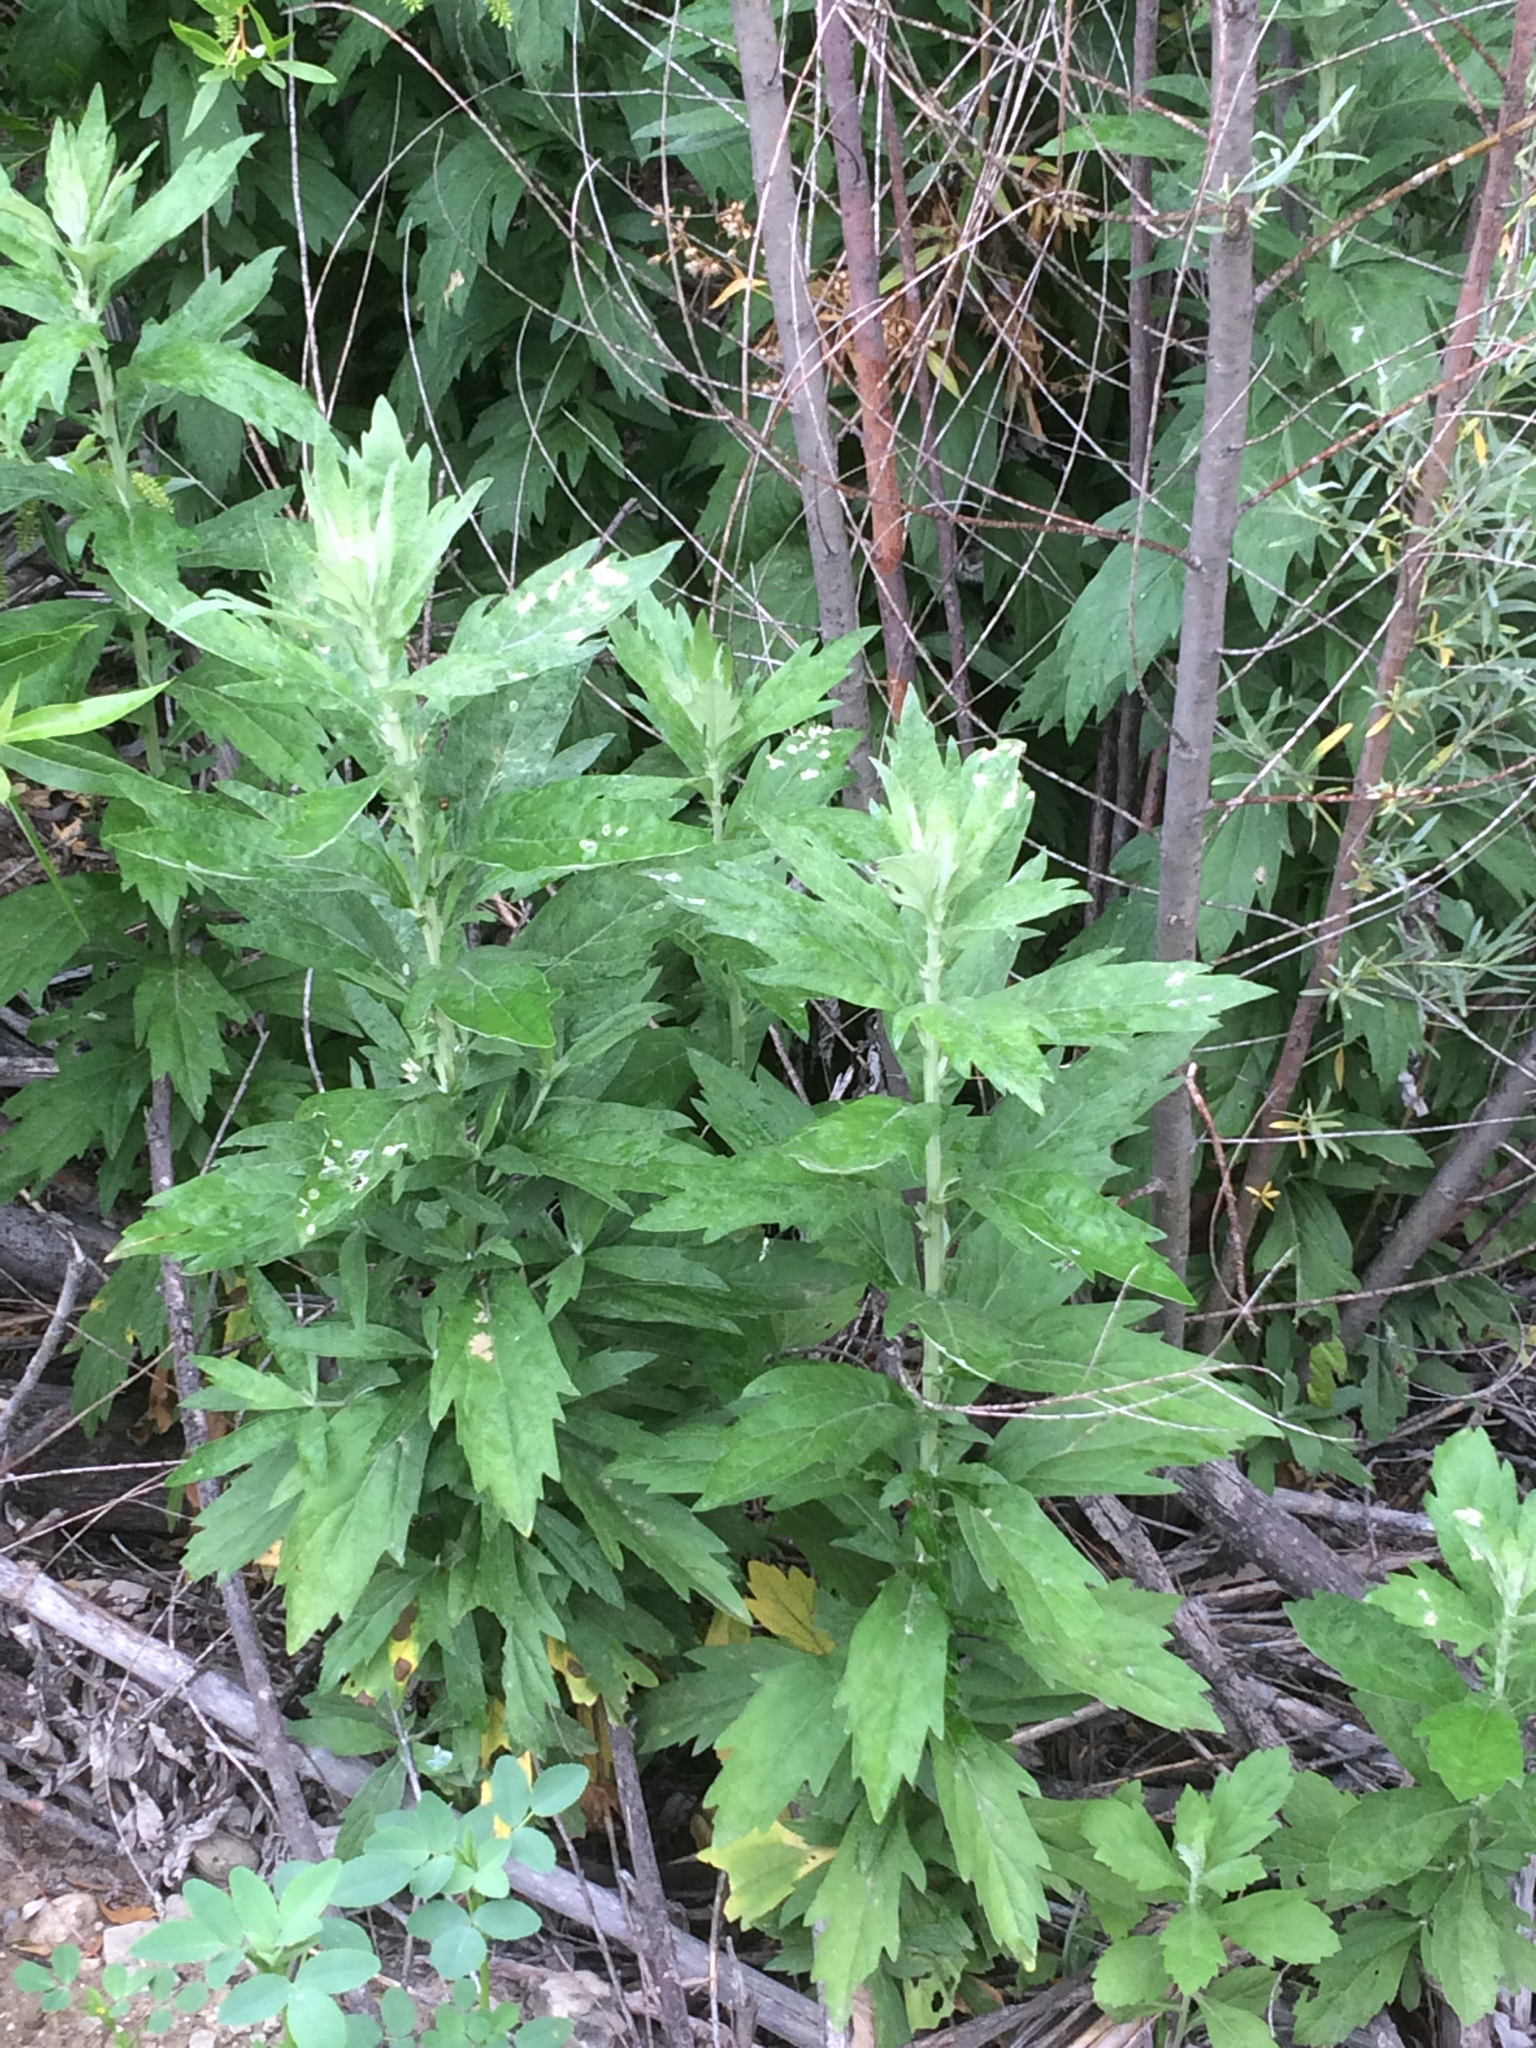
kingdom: Plantae
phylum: Tracheophyta
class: Magnoliopsida
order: Asterales
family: Asteraceae
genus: Artemisia
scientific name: Artemisia douglasiana
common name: Northwest mugwort
